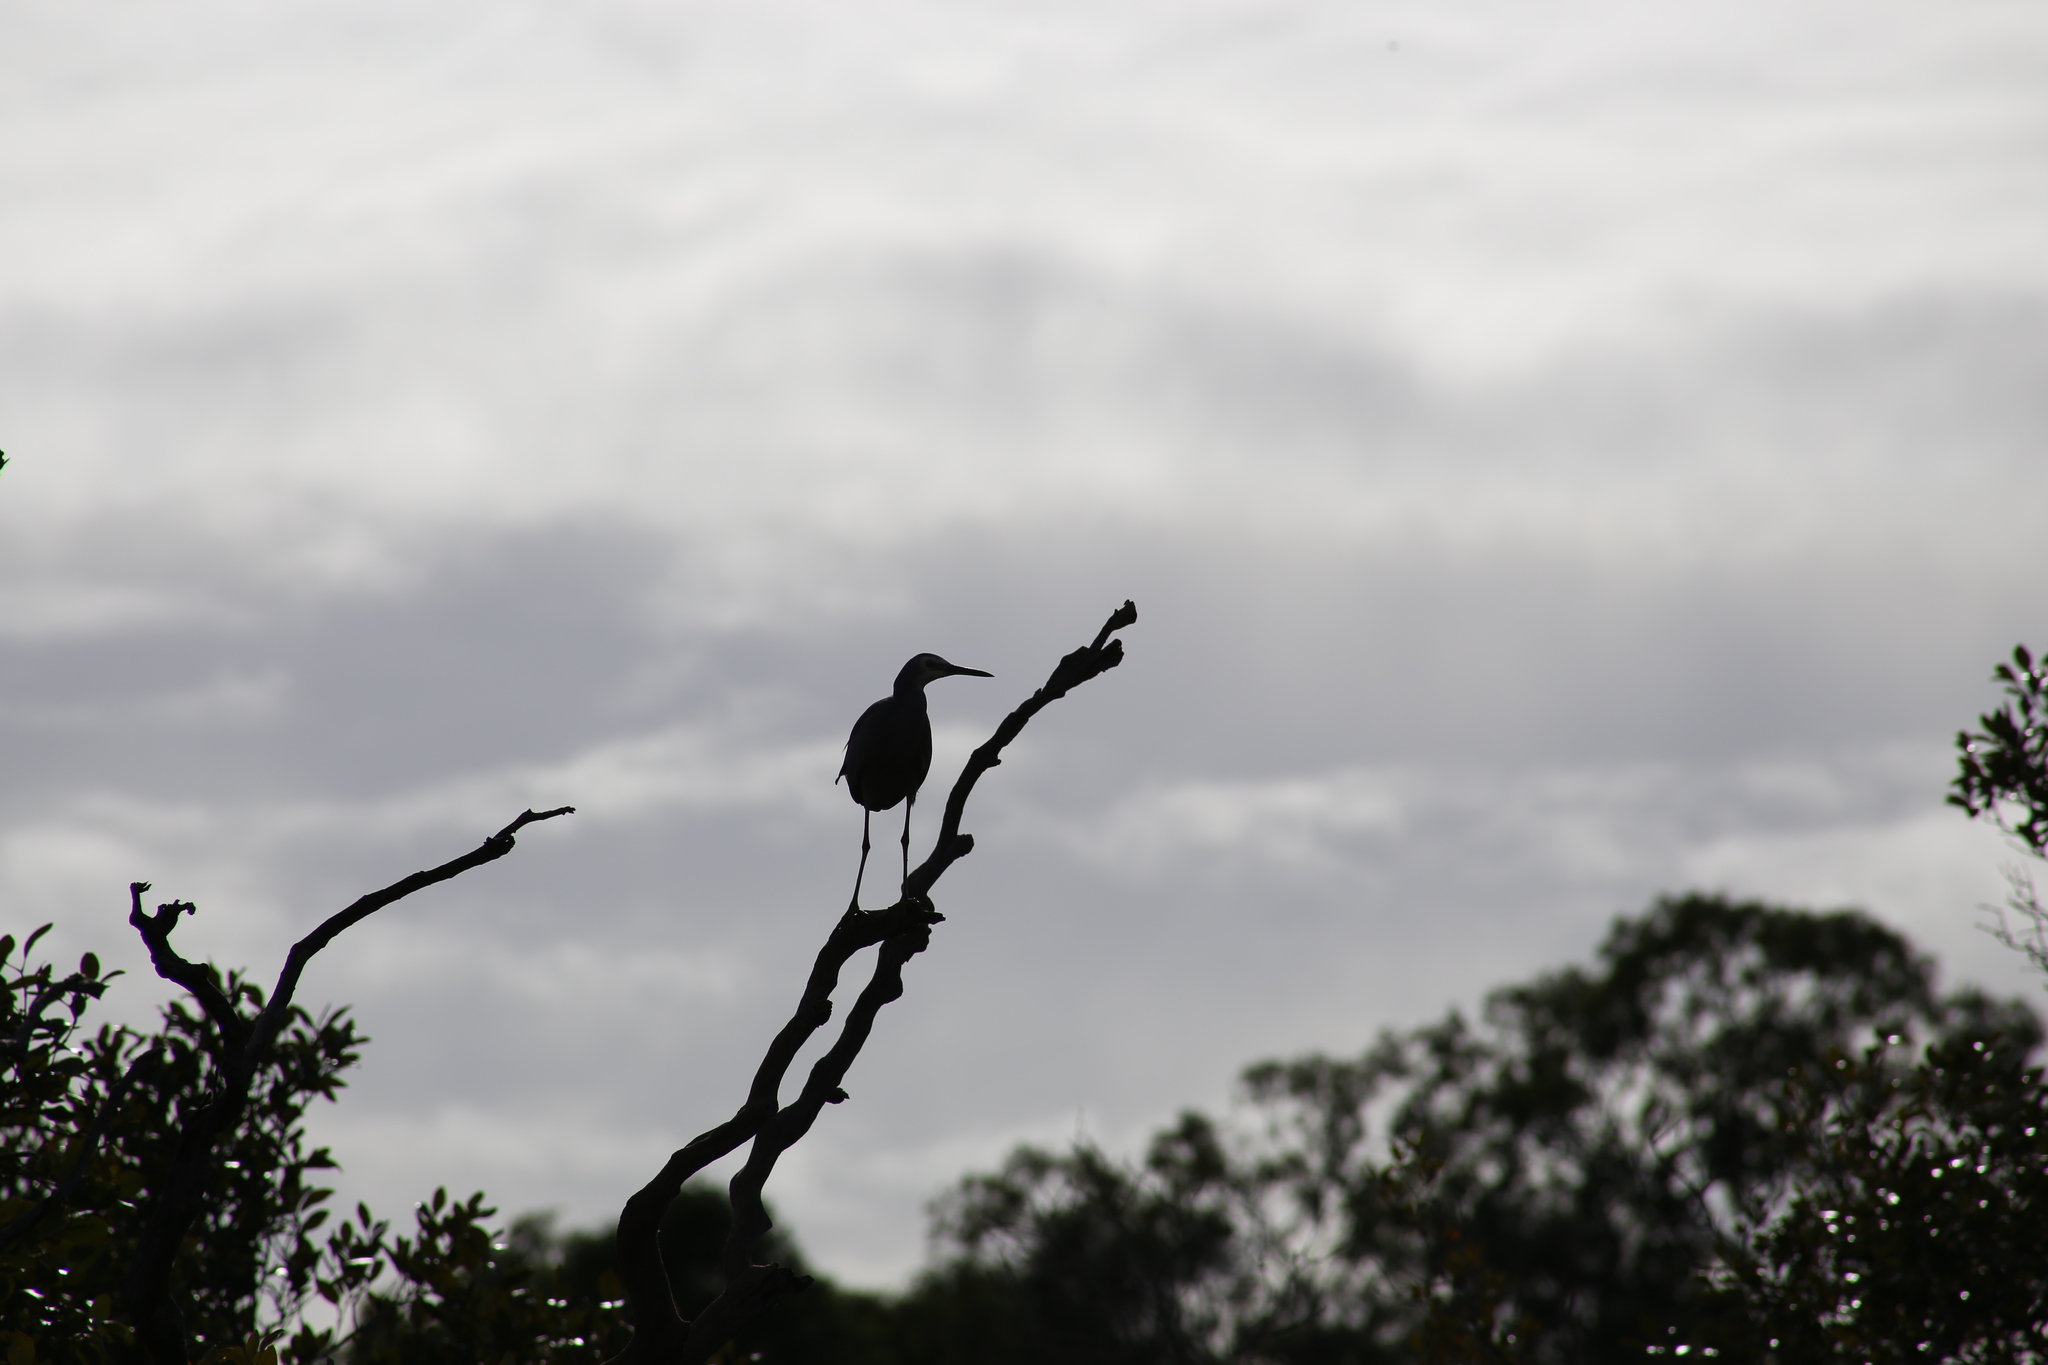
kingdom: Animalia
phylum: Chordata
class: Aves
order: Pelecaniformes
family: Ardeidae
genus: Egretta
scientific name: Egretta novaehollandiae
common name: White-faced heron
